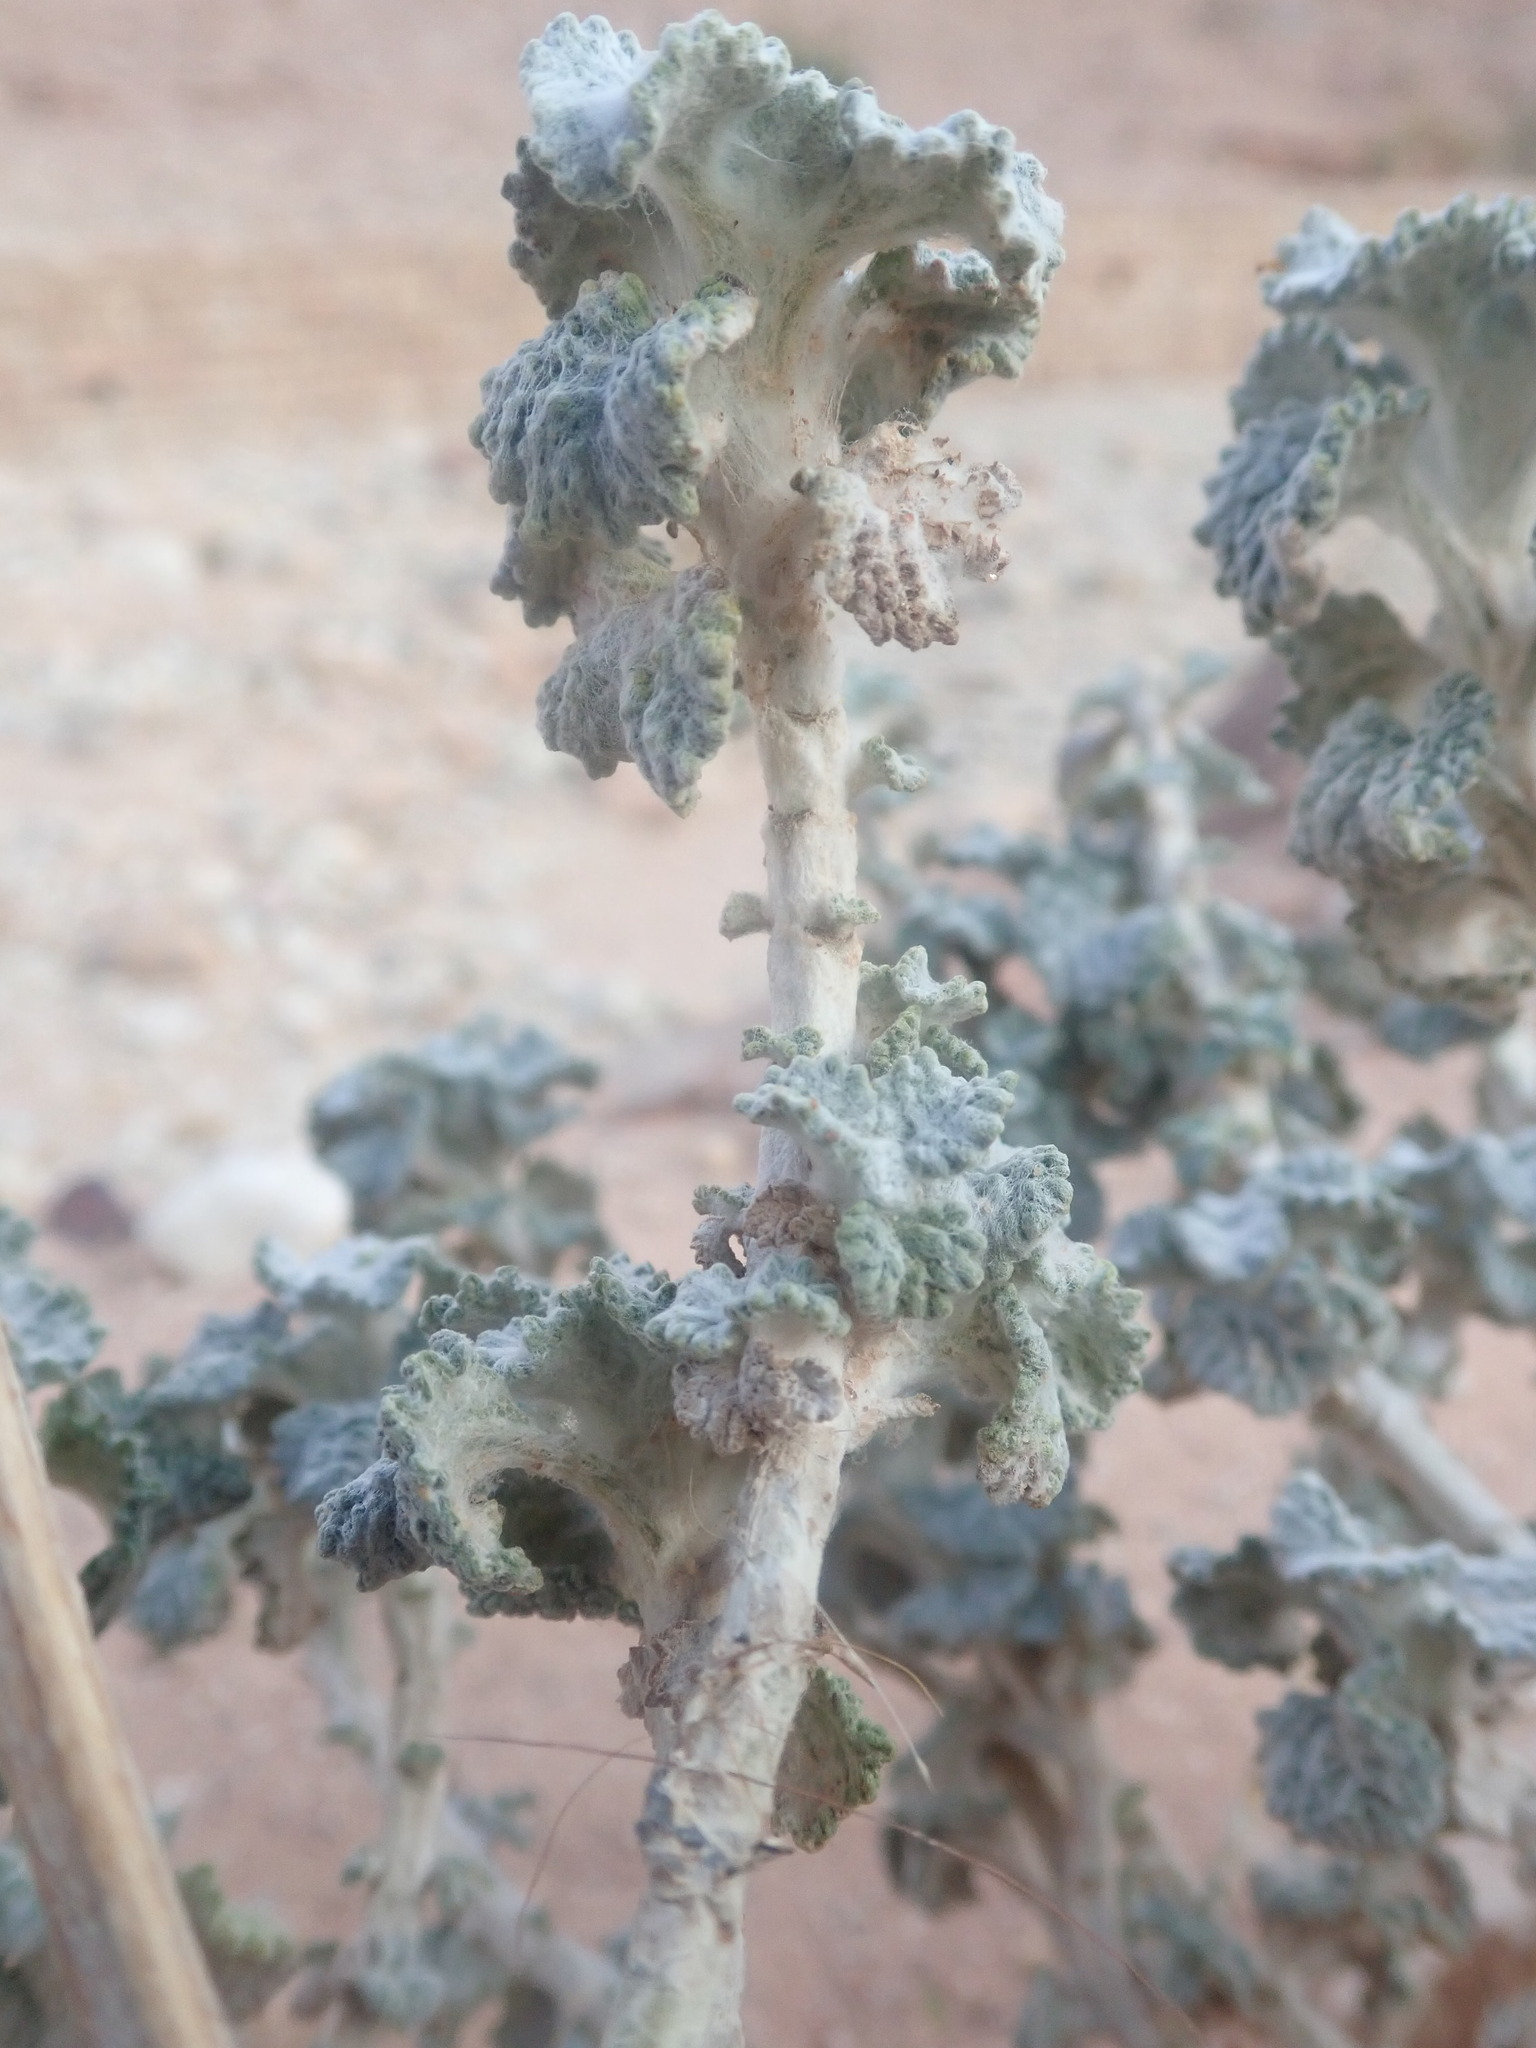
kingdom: Plantae
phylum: Tracheophyta
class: Magnoliopsida
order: Lamiales
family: Lamiaceae
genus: Marrubium
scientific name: Marrubium vulgare
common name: Horehound
